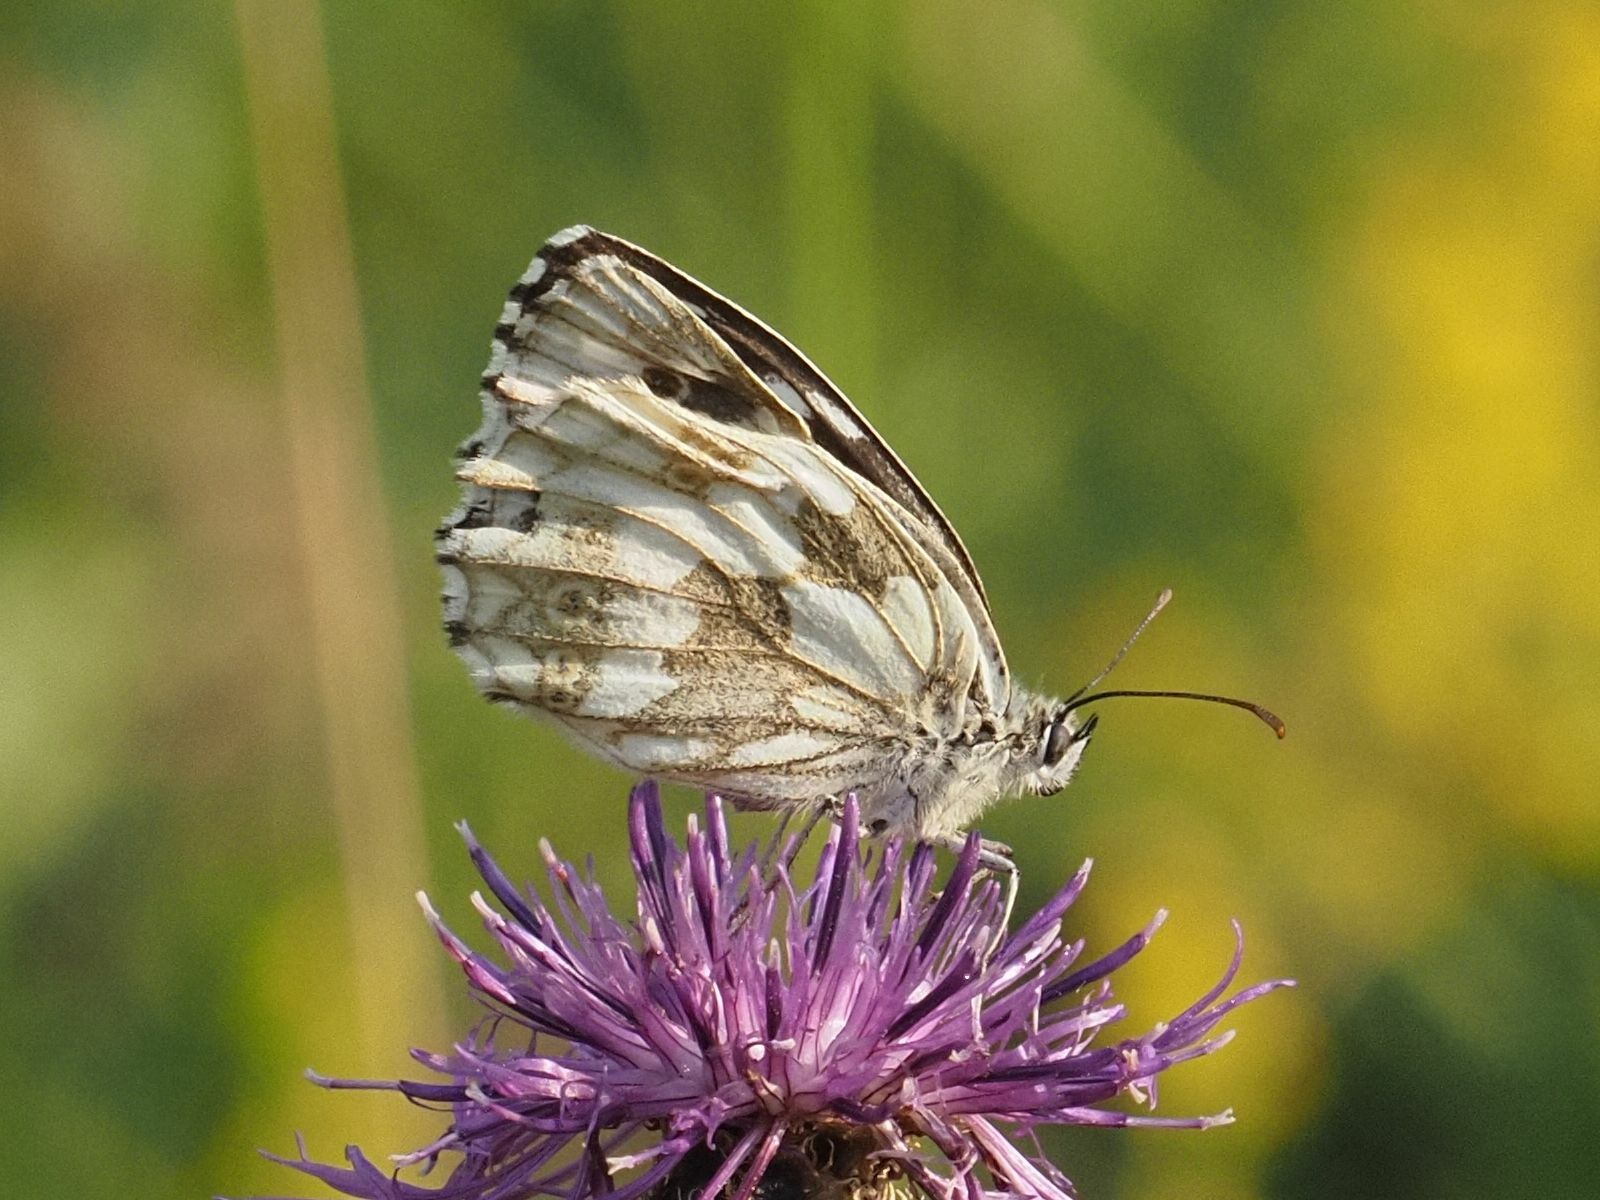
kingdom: Animalia
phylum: Arthropoda
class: Insecta
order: Lepidoptera
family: Nymphalidae
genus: Melanargia
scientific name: Melanargia galathea
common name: Marbled white
